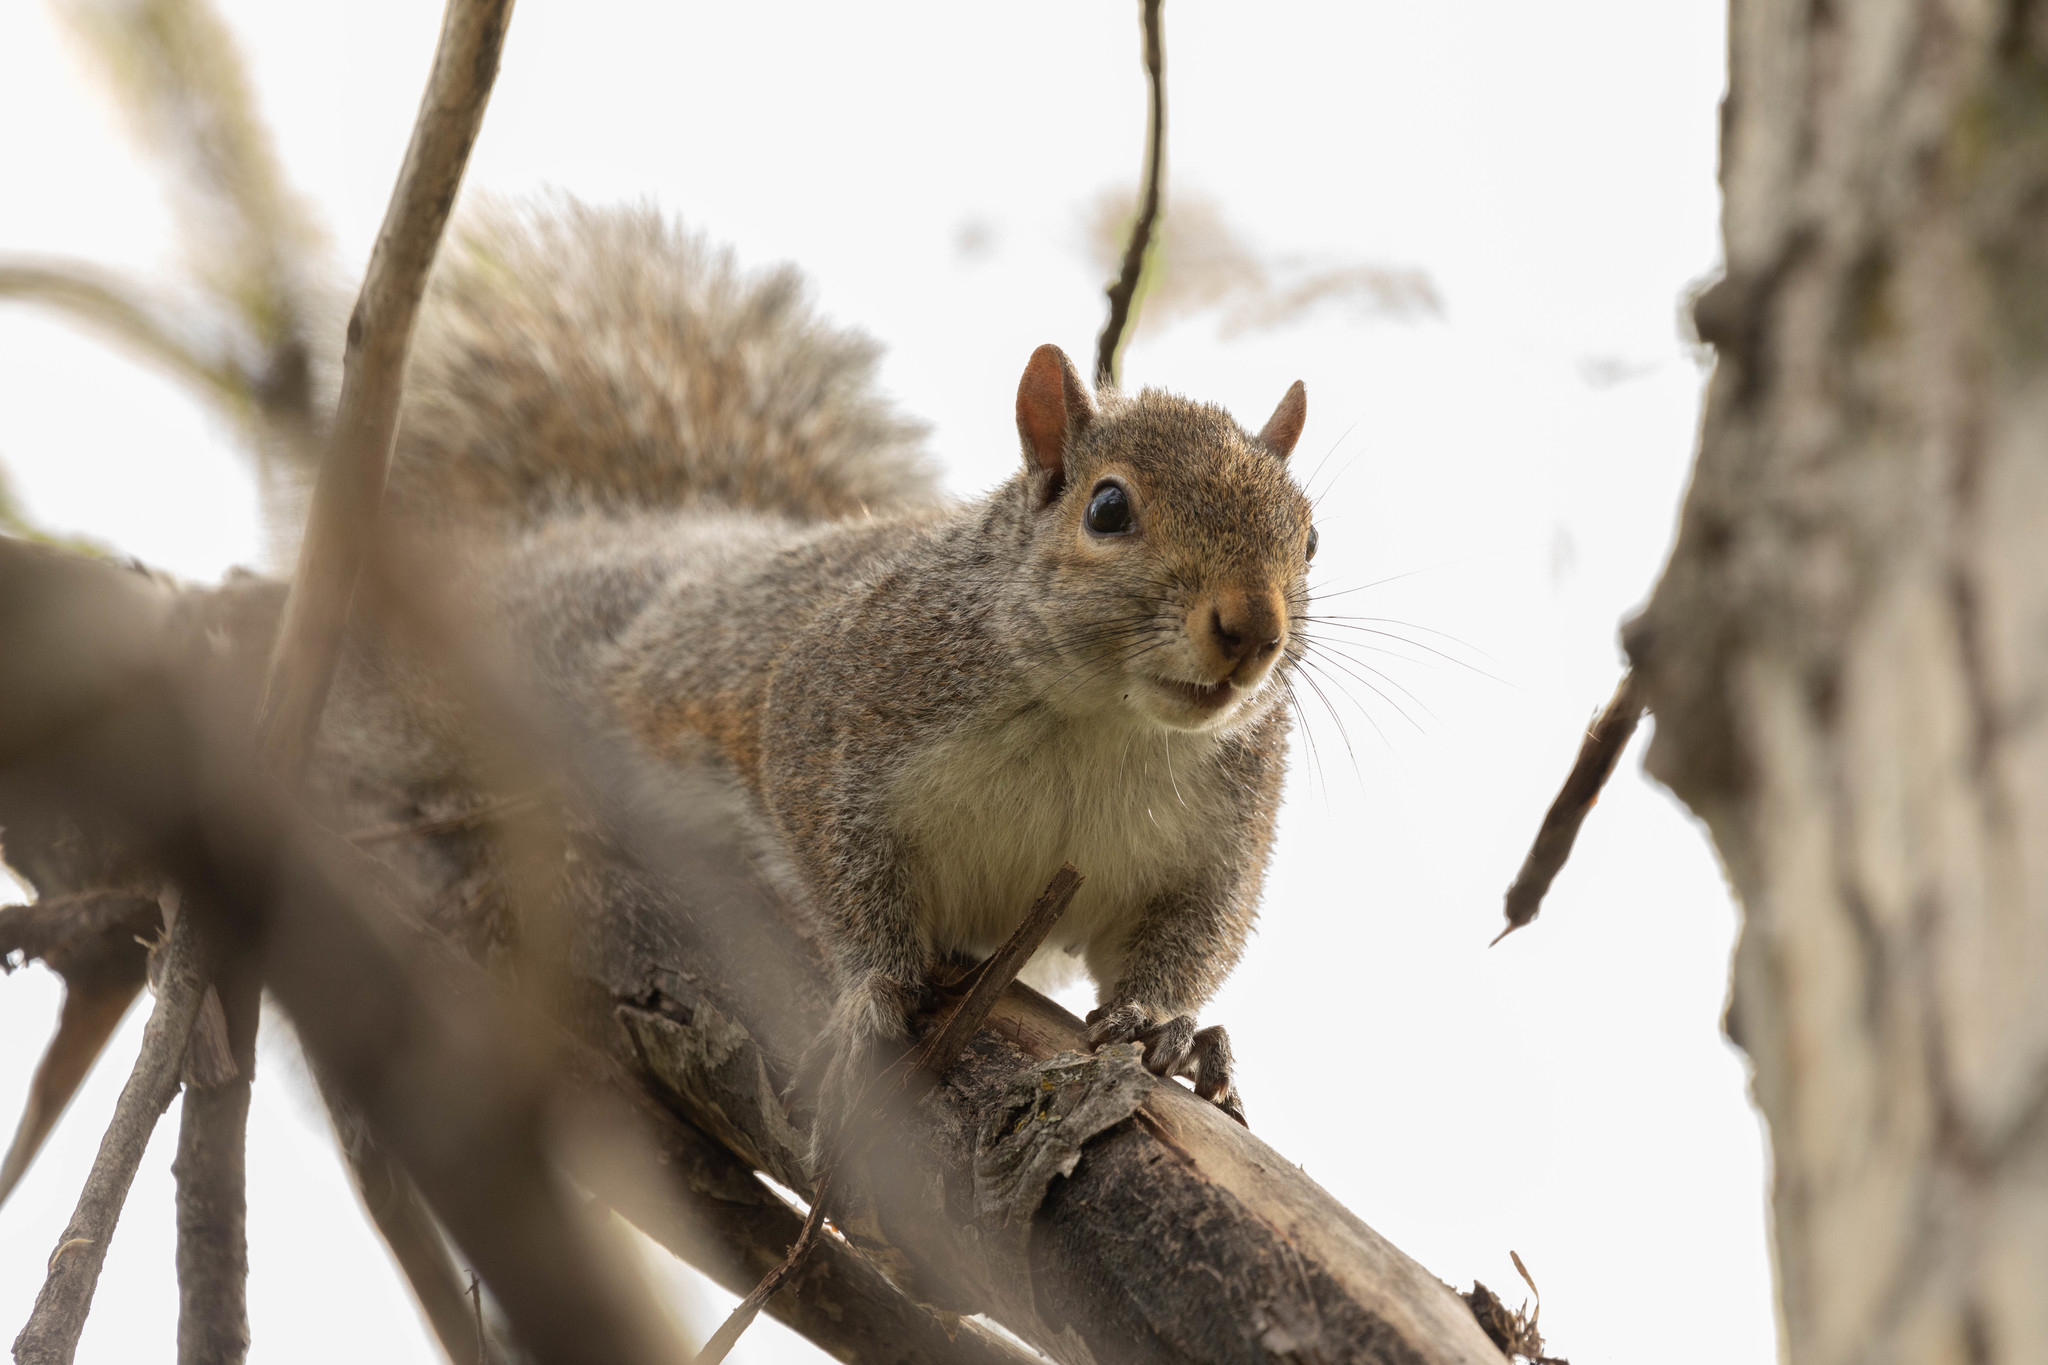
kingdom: Animalia
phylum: Chordata
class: Mammalia
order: Rodentia
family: Sciuridae
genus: Sciurus
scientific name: Sciurus carolinensis
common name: Eastern gray squirrel
